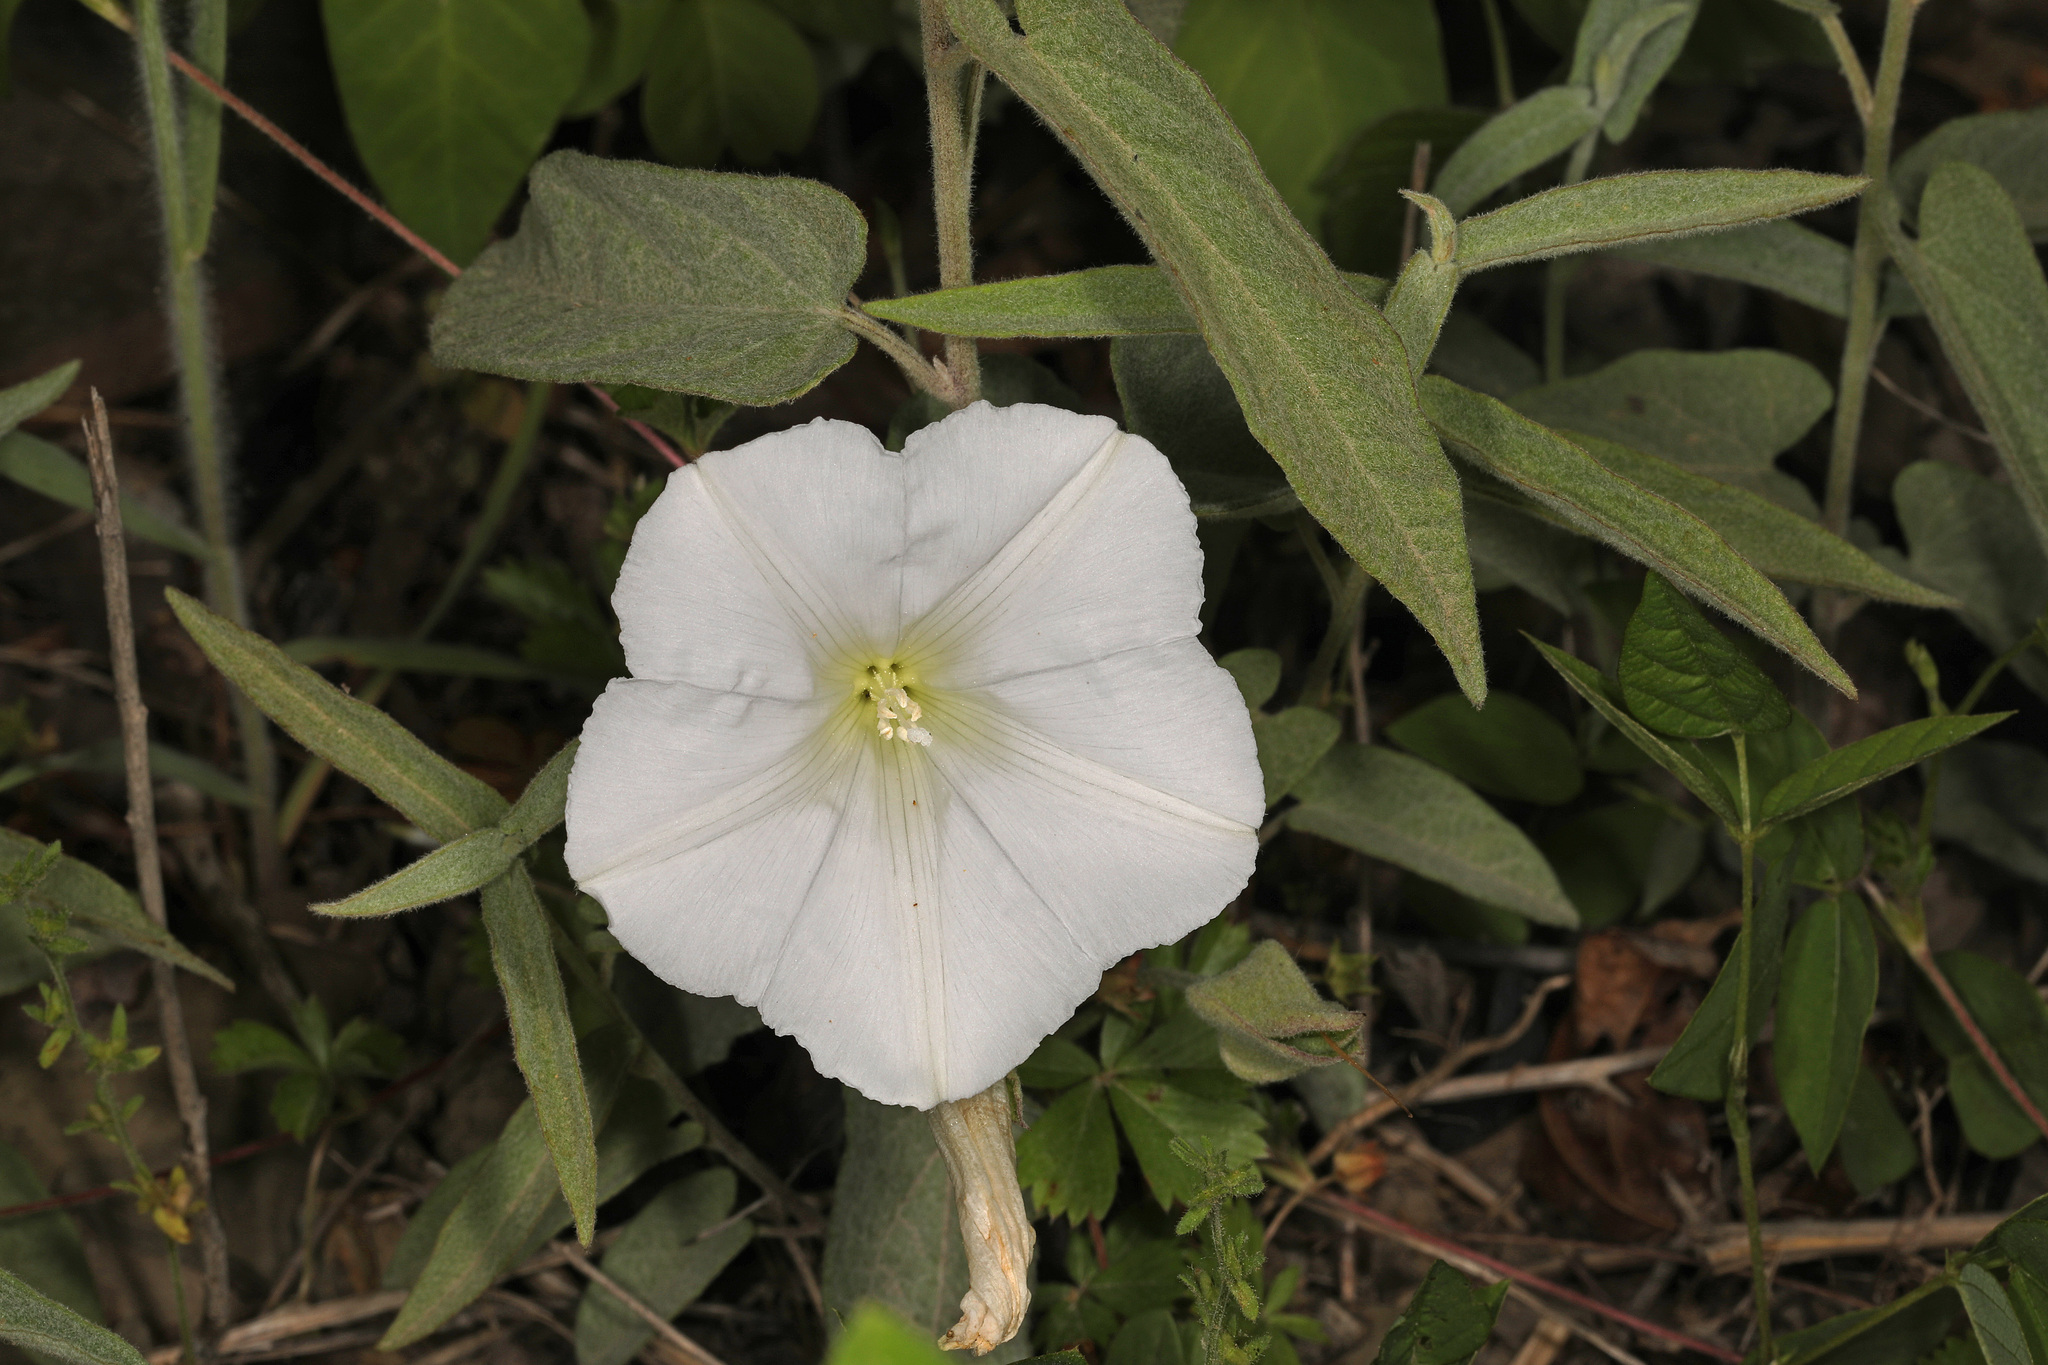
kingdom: Plantae
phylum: Tracheophyta
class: Magnoliopsida
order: Solanales
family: Convolvulaceae
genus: Calystegia
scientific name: Calystegia spithamaea
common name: Dwarf bindweed
